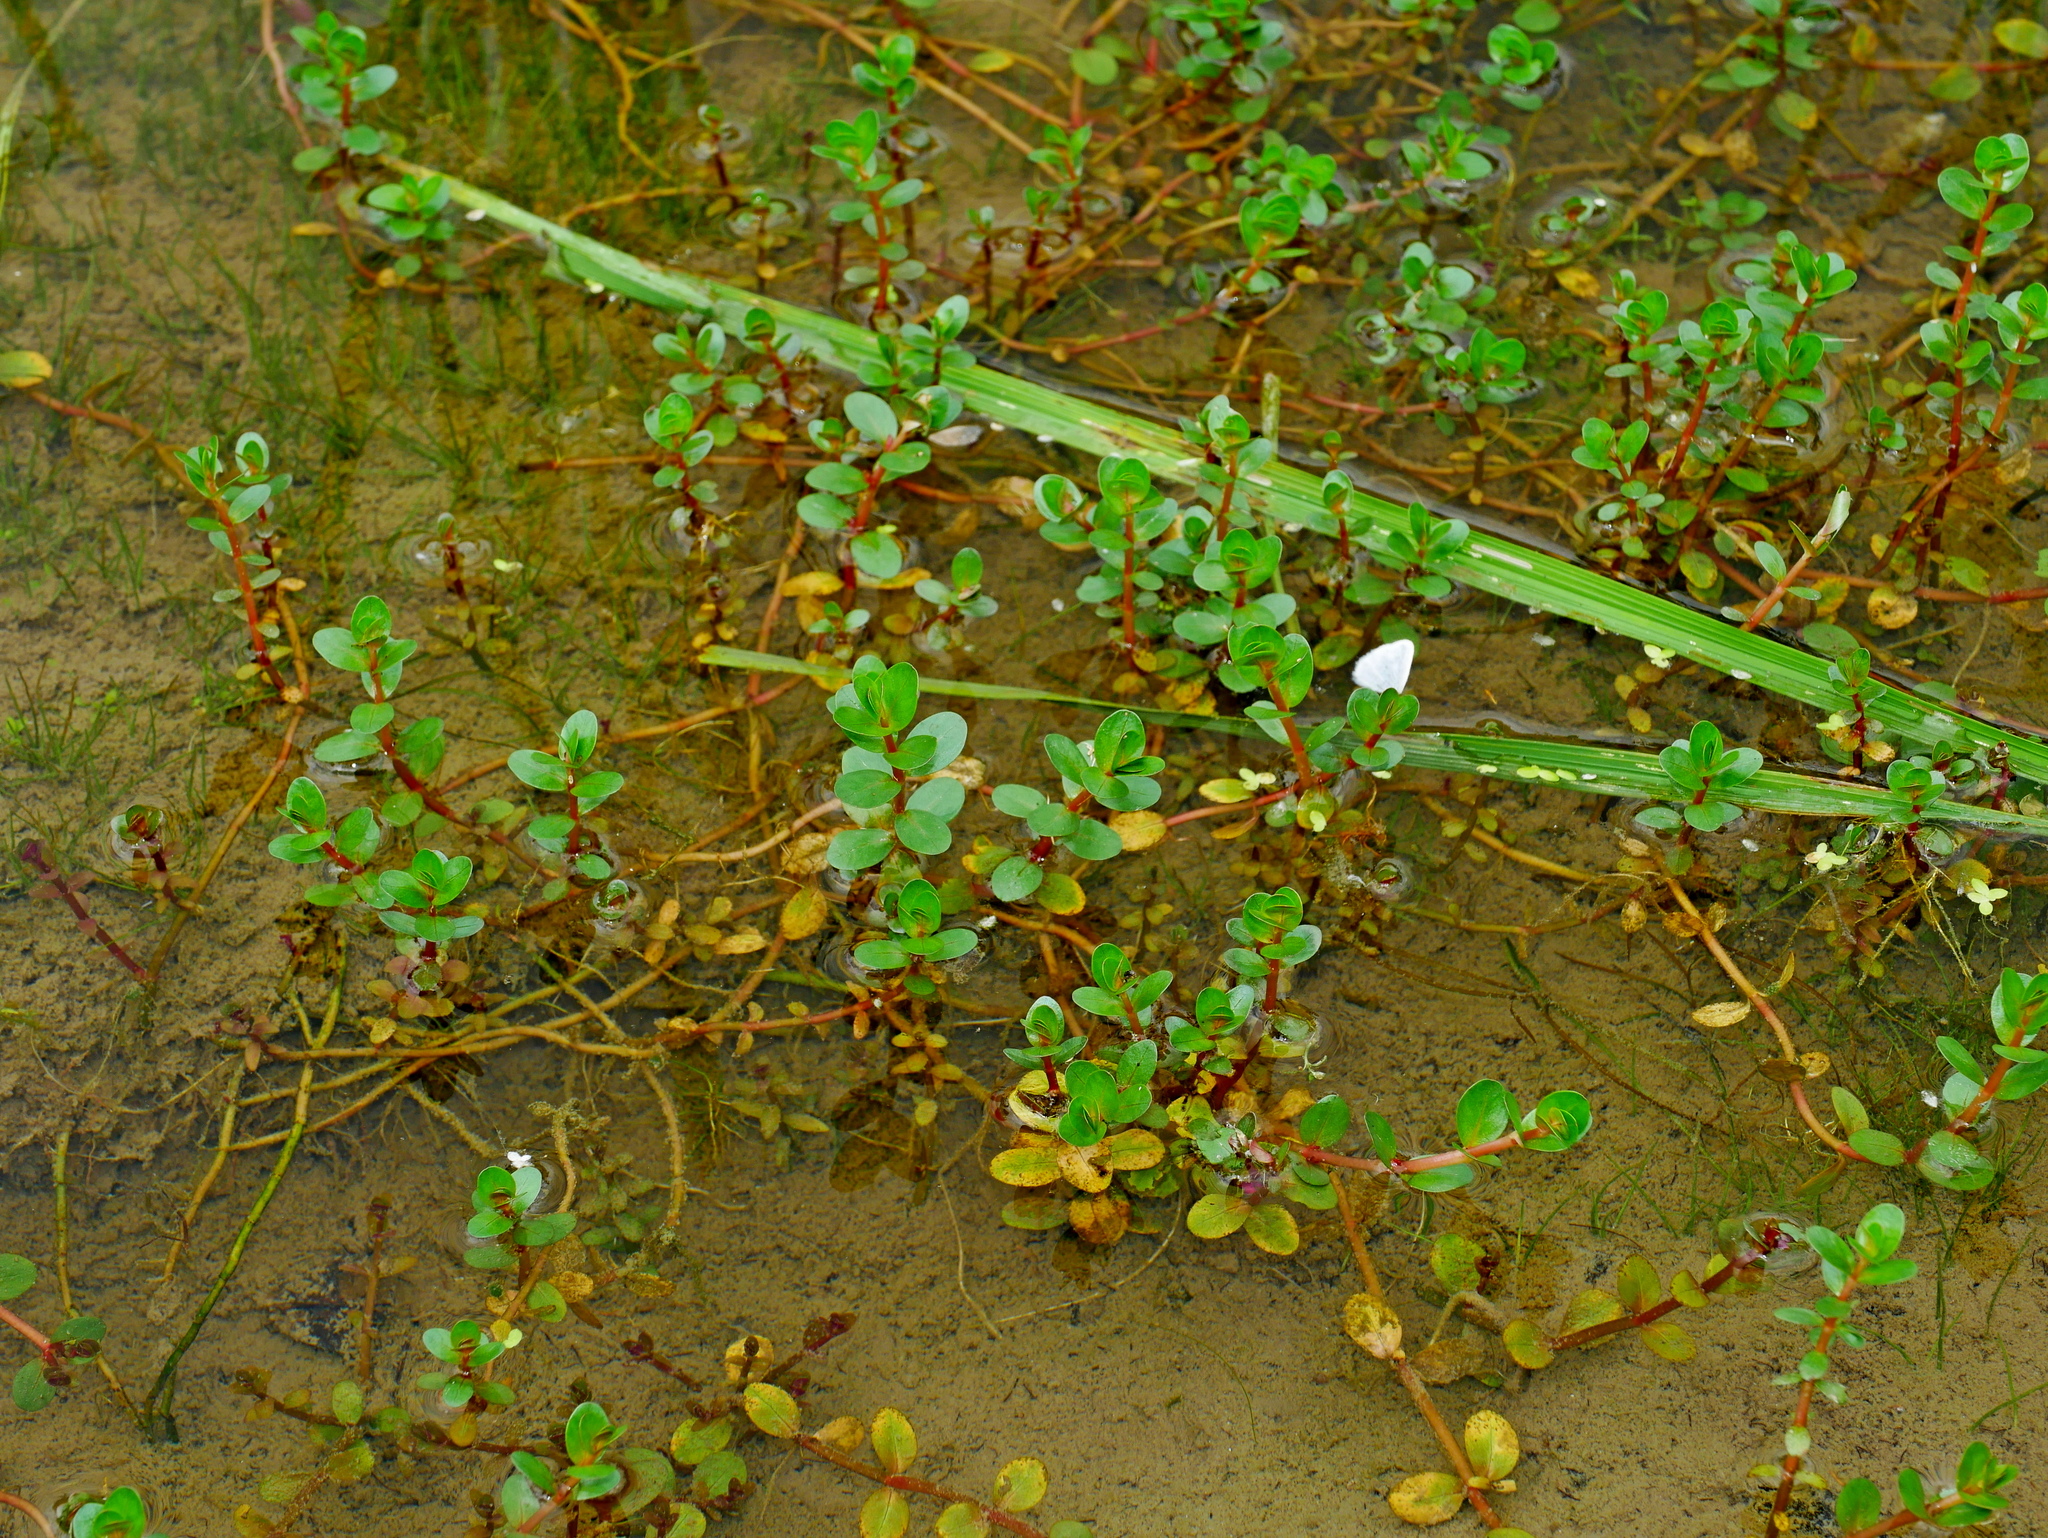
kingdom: Plantae
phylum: Tracheophyta
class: Magnoliopsida
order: Myrtales
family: Lythraceae
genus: Rotala
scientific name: Rotala rotundifolia
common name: Roundleaf toothcup
